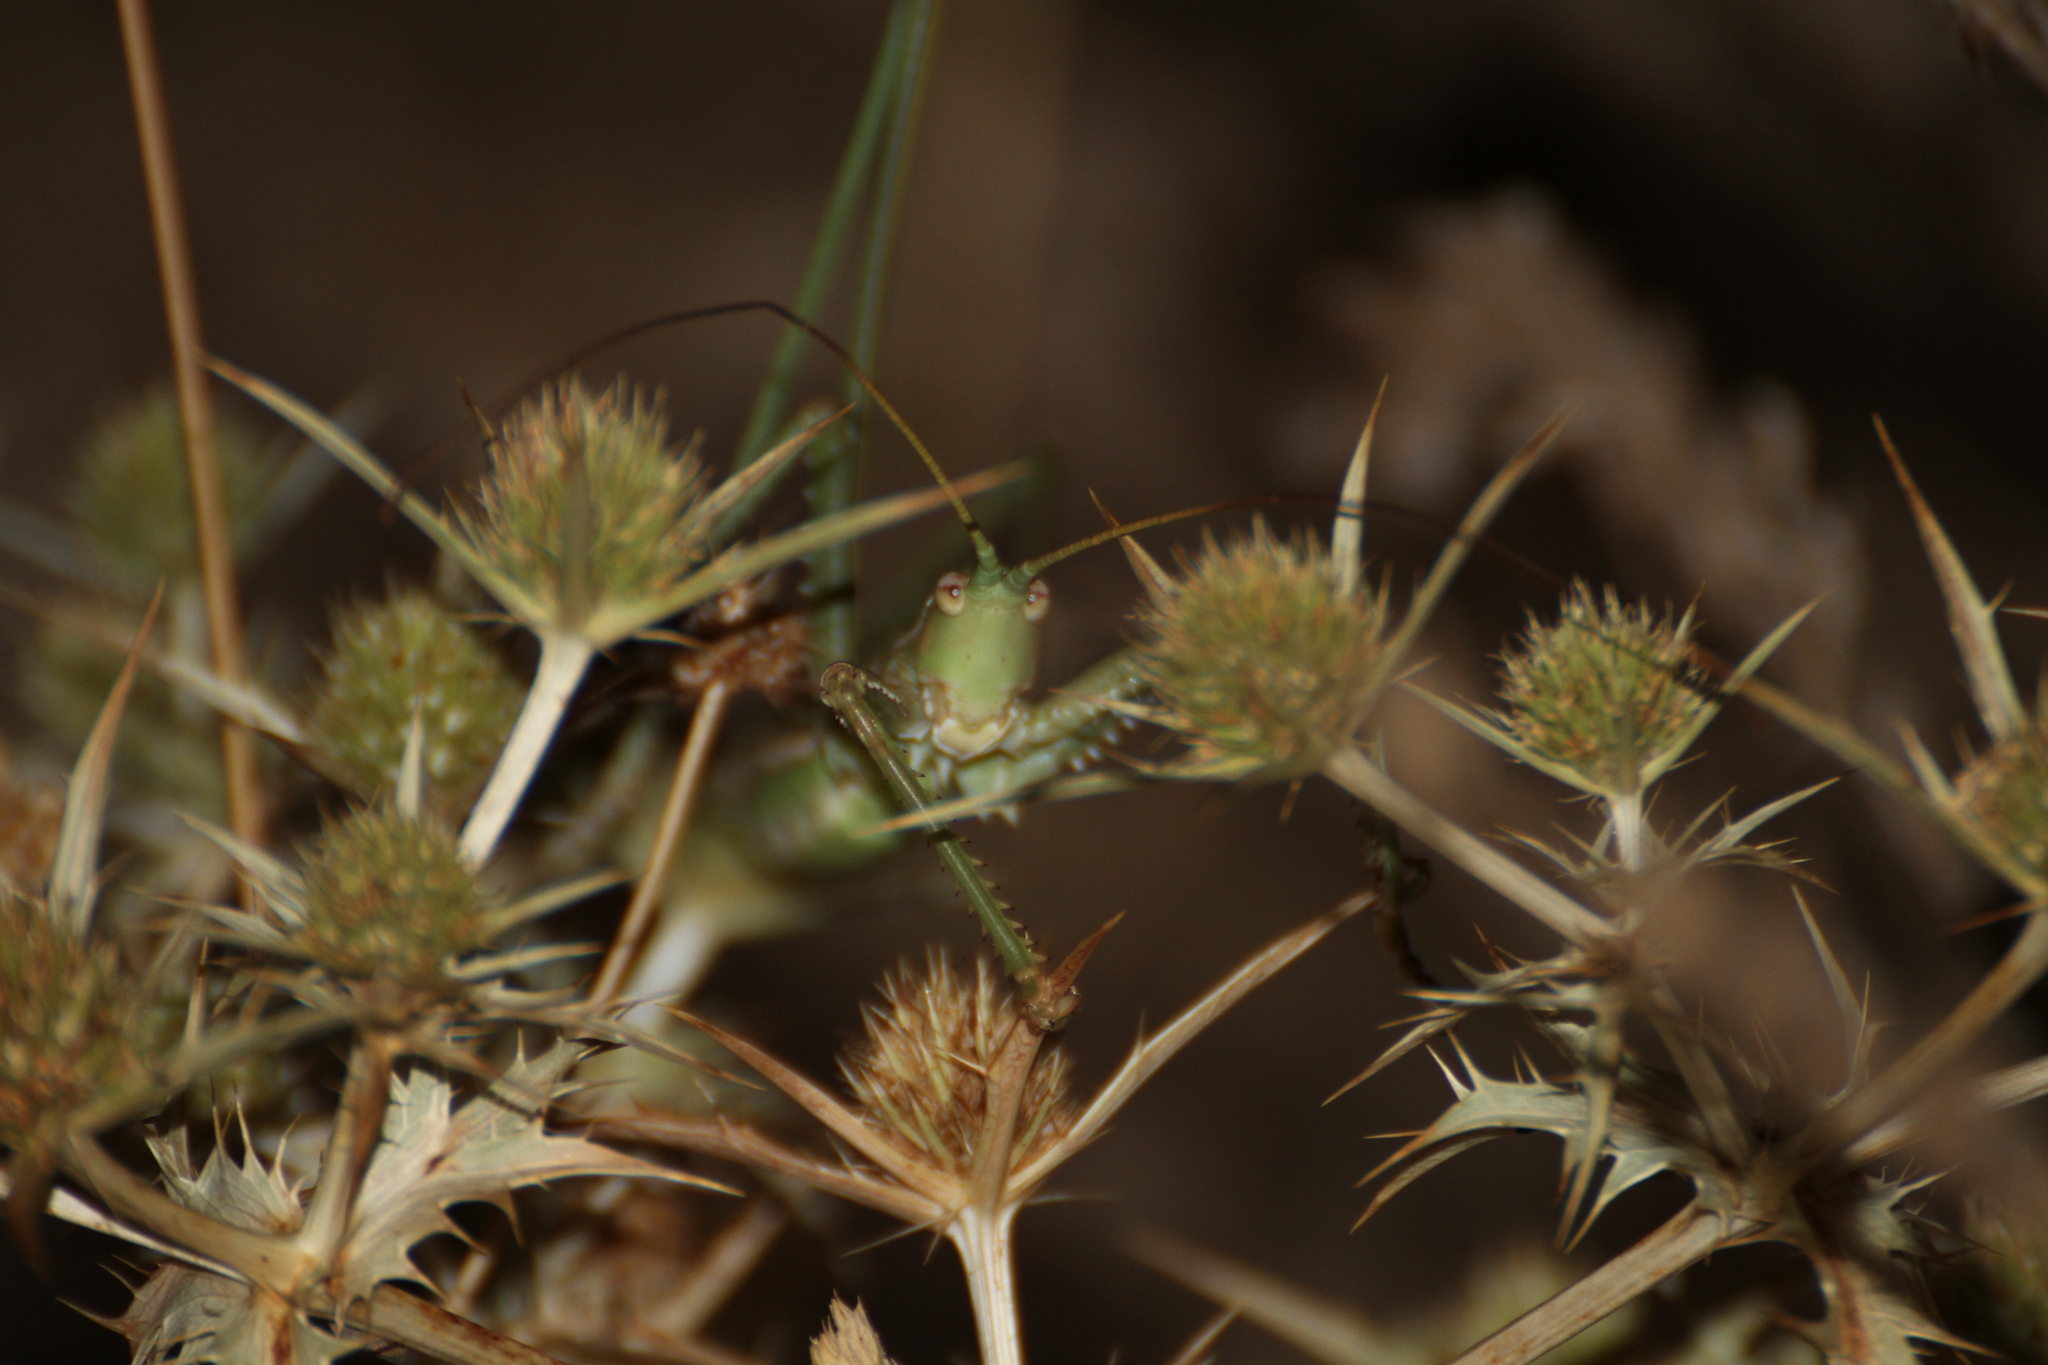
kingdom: Animalia
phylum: Arthropoda
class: Insecta
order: Orthoptera
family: Tettigoniidae
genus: Saga
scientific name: Saga pedo
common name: Common predatory bush-cricket
